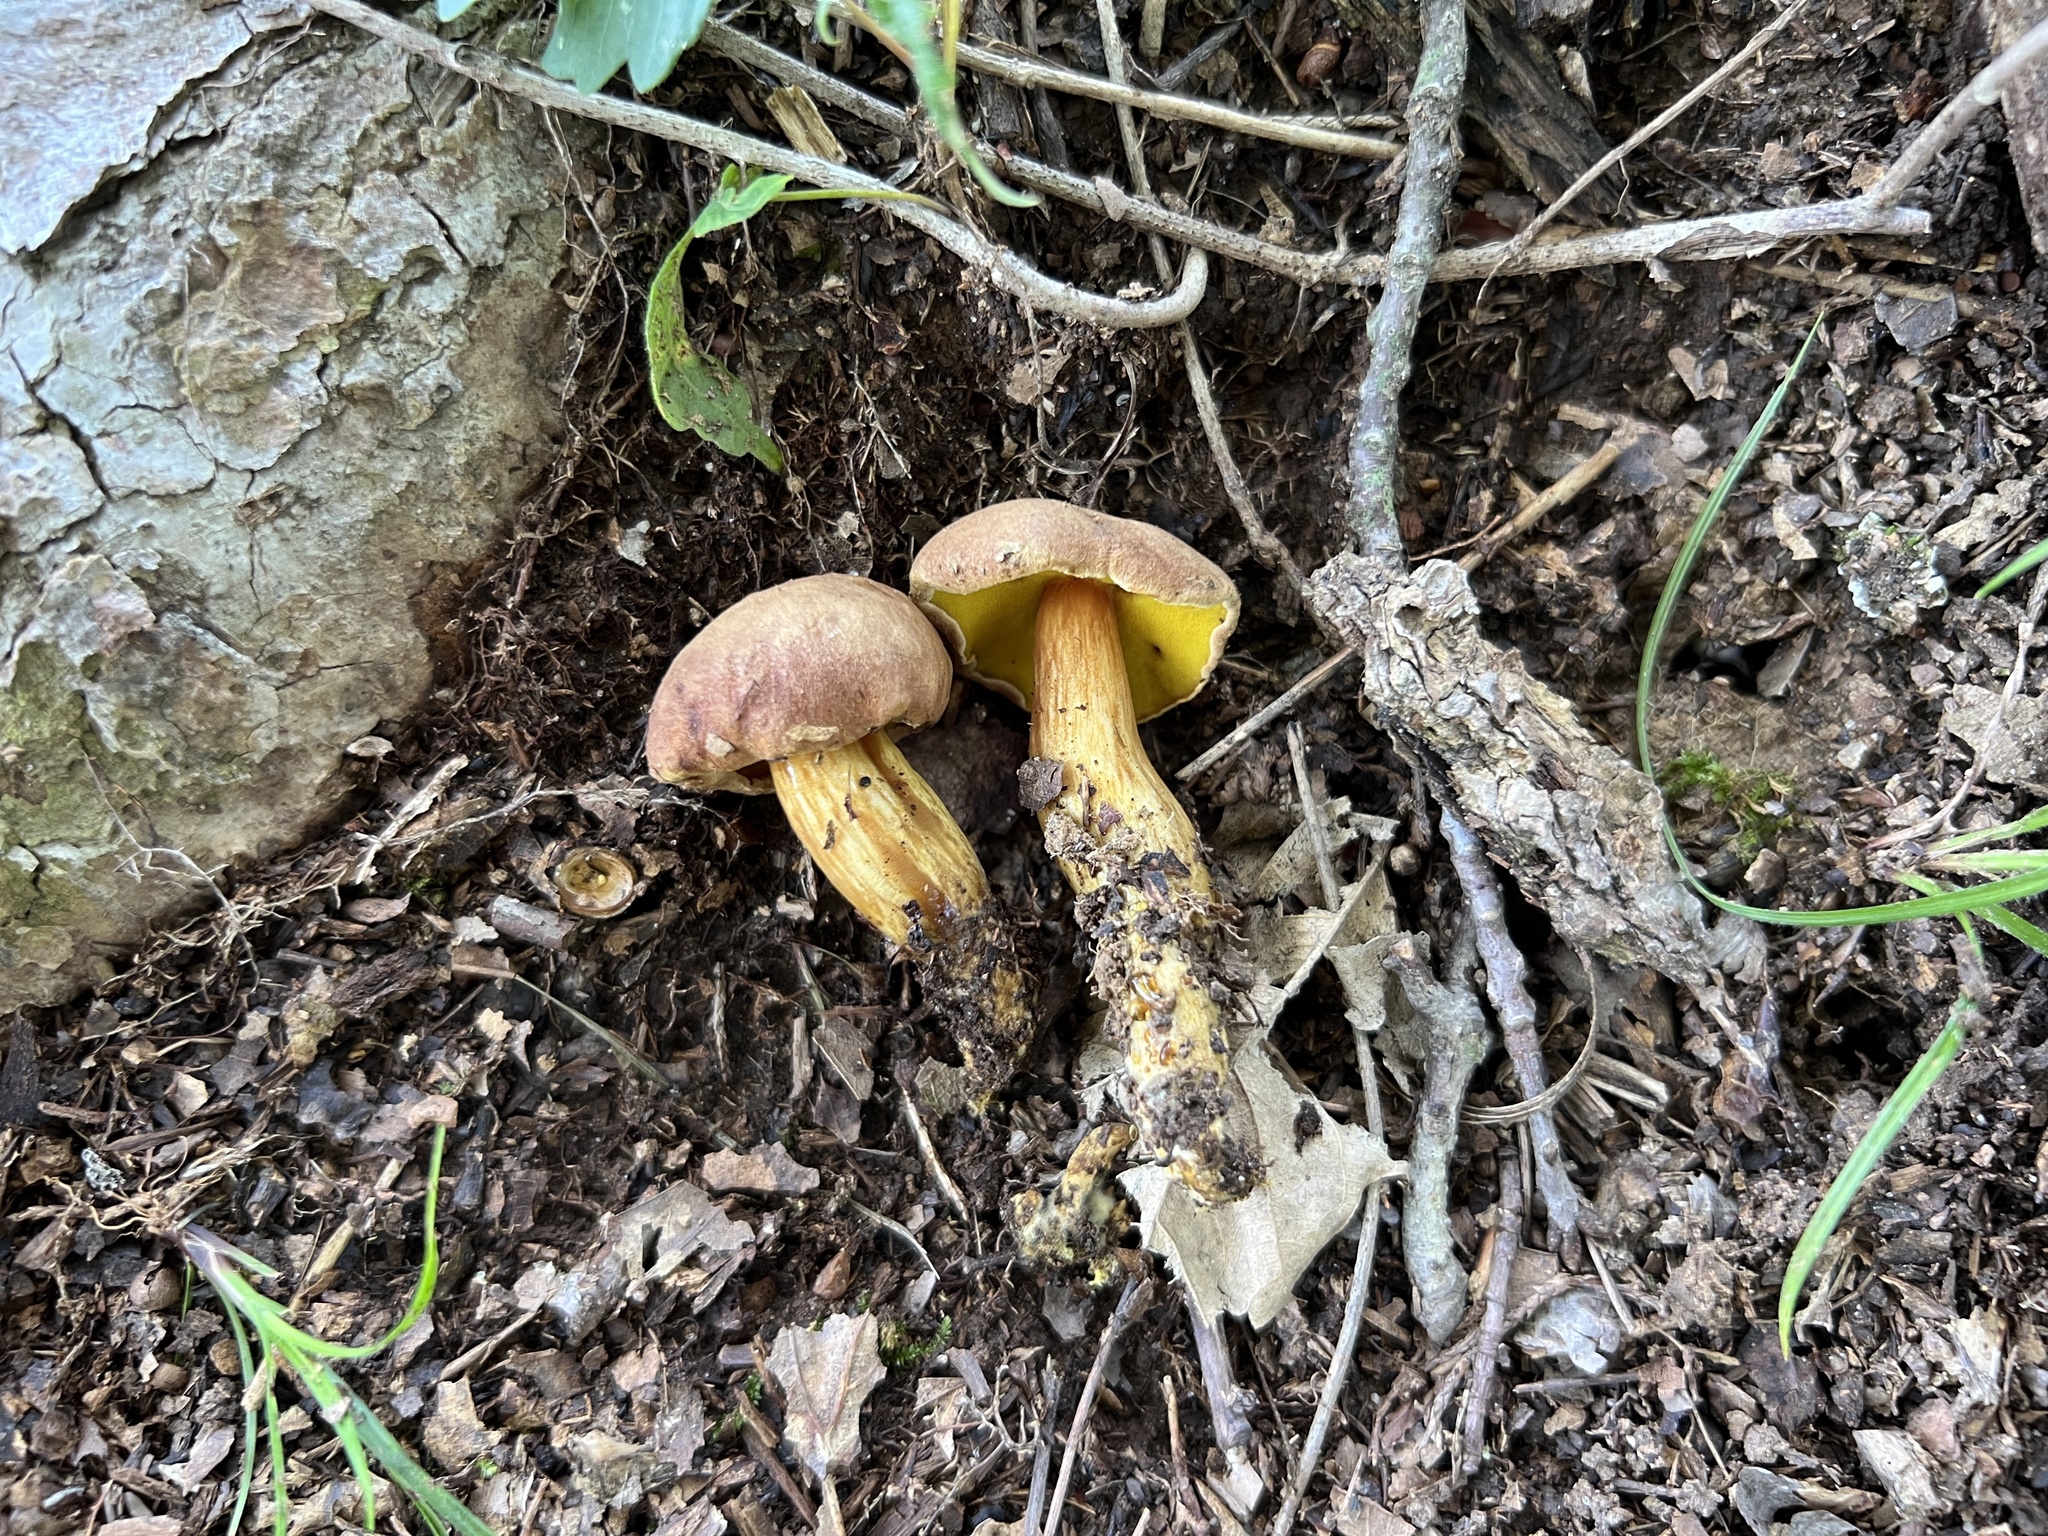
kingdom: Fungi
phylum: Basidiomycota
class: Agaricomycetes
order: Boletales
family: Boletaceae
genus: Aureoboletus
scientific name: Aureoboletus innixus
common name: Clustered brown bolete
